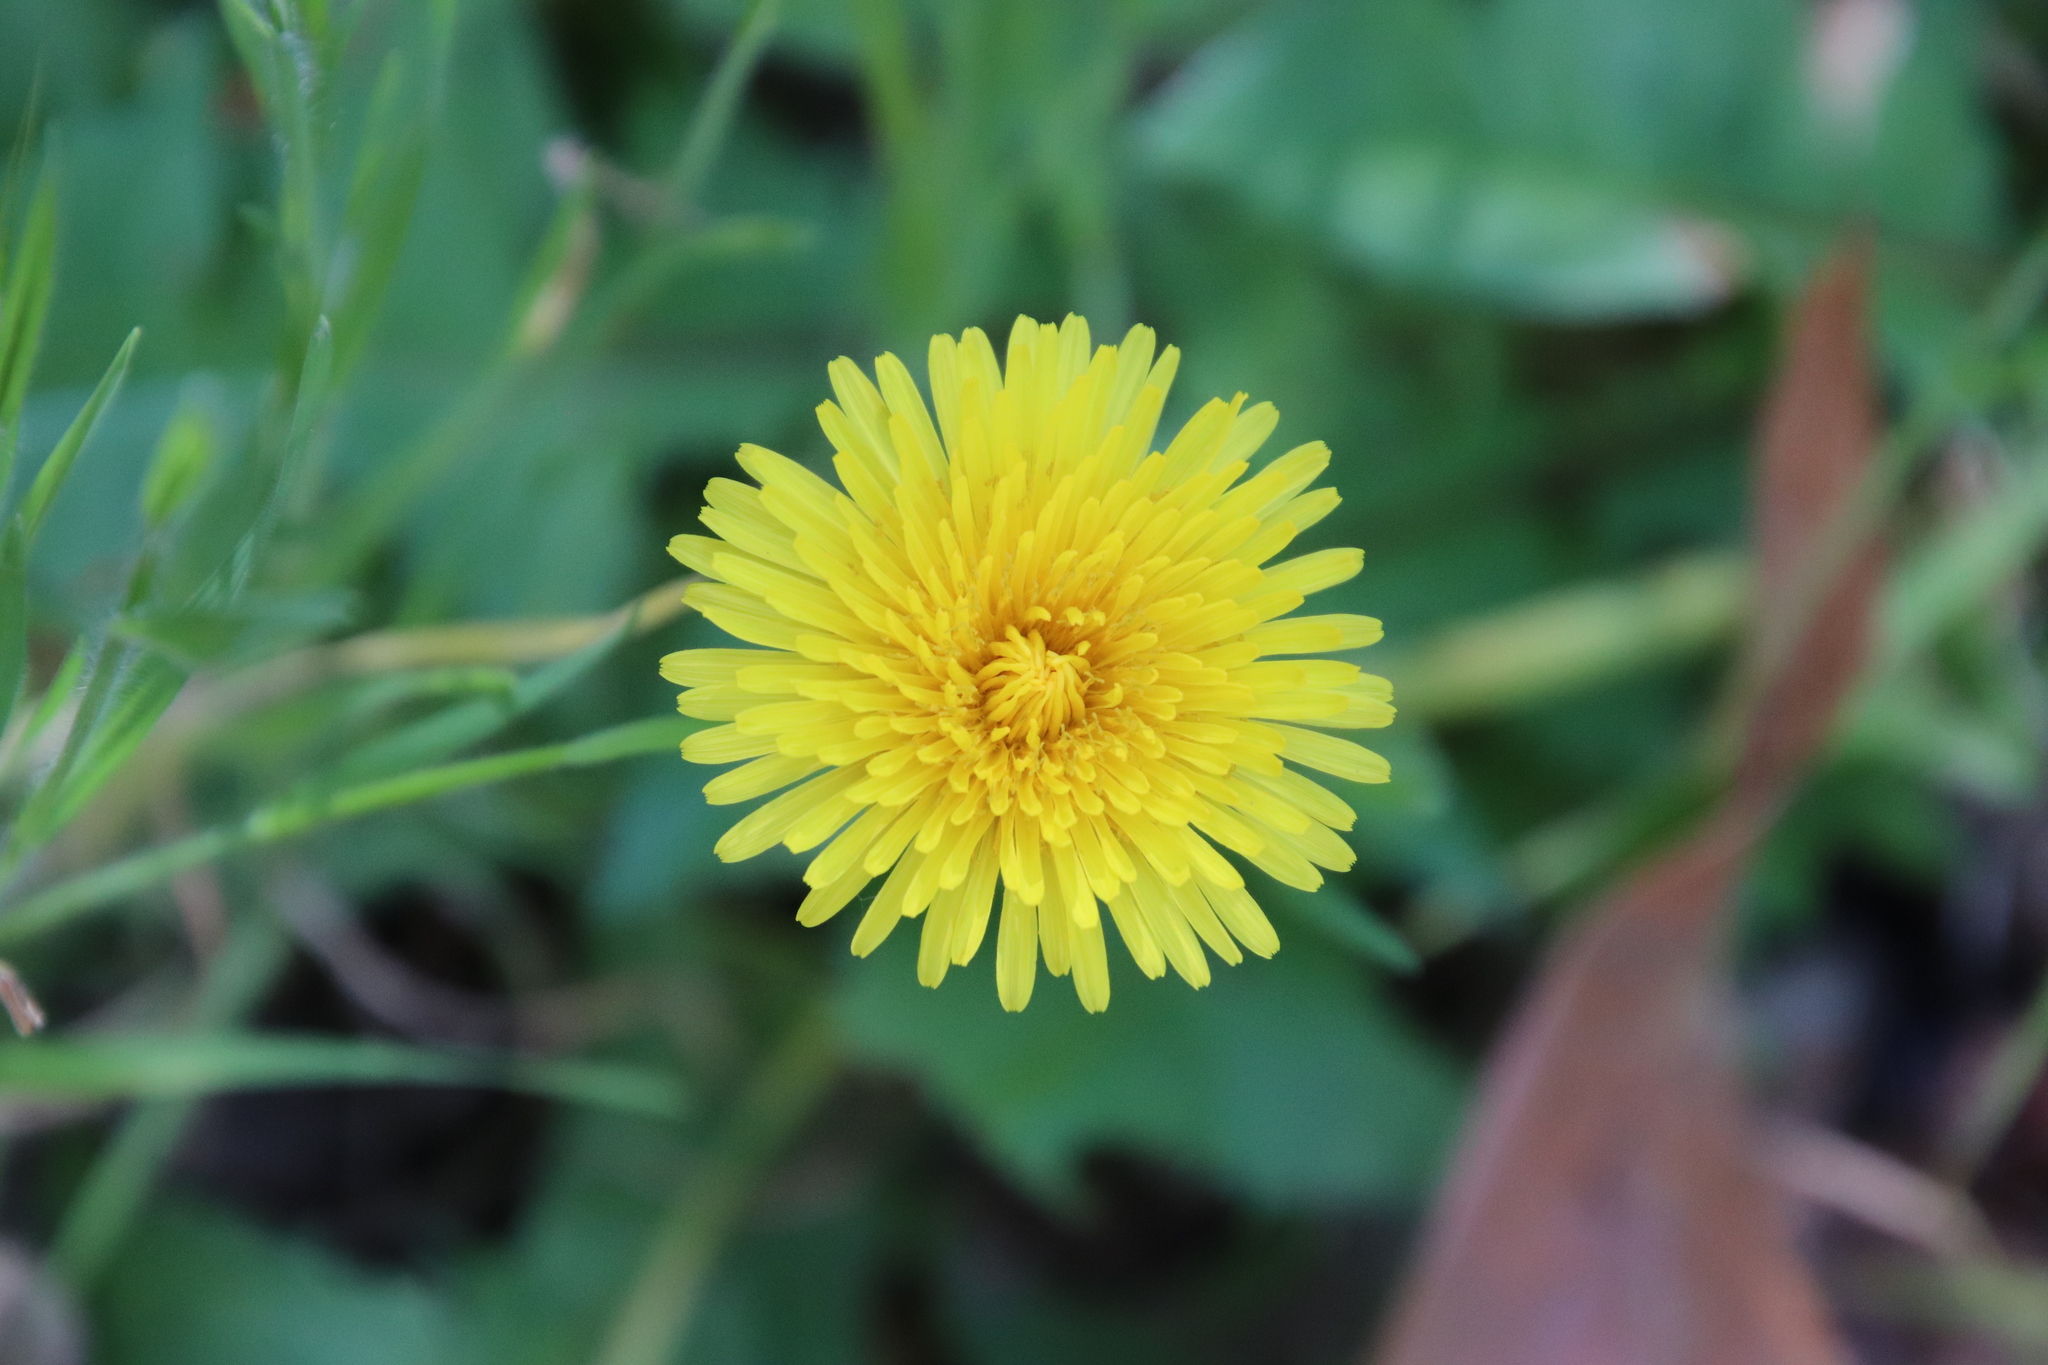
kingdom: Plantae
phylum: Tracheophyta
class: Magnoliopsida
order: Asterales
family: Asteraceae
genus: Taraxacum
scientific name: Taraxacum officinale
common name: Common dandelion
